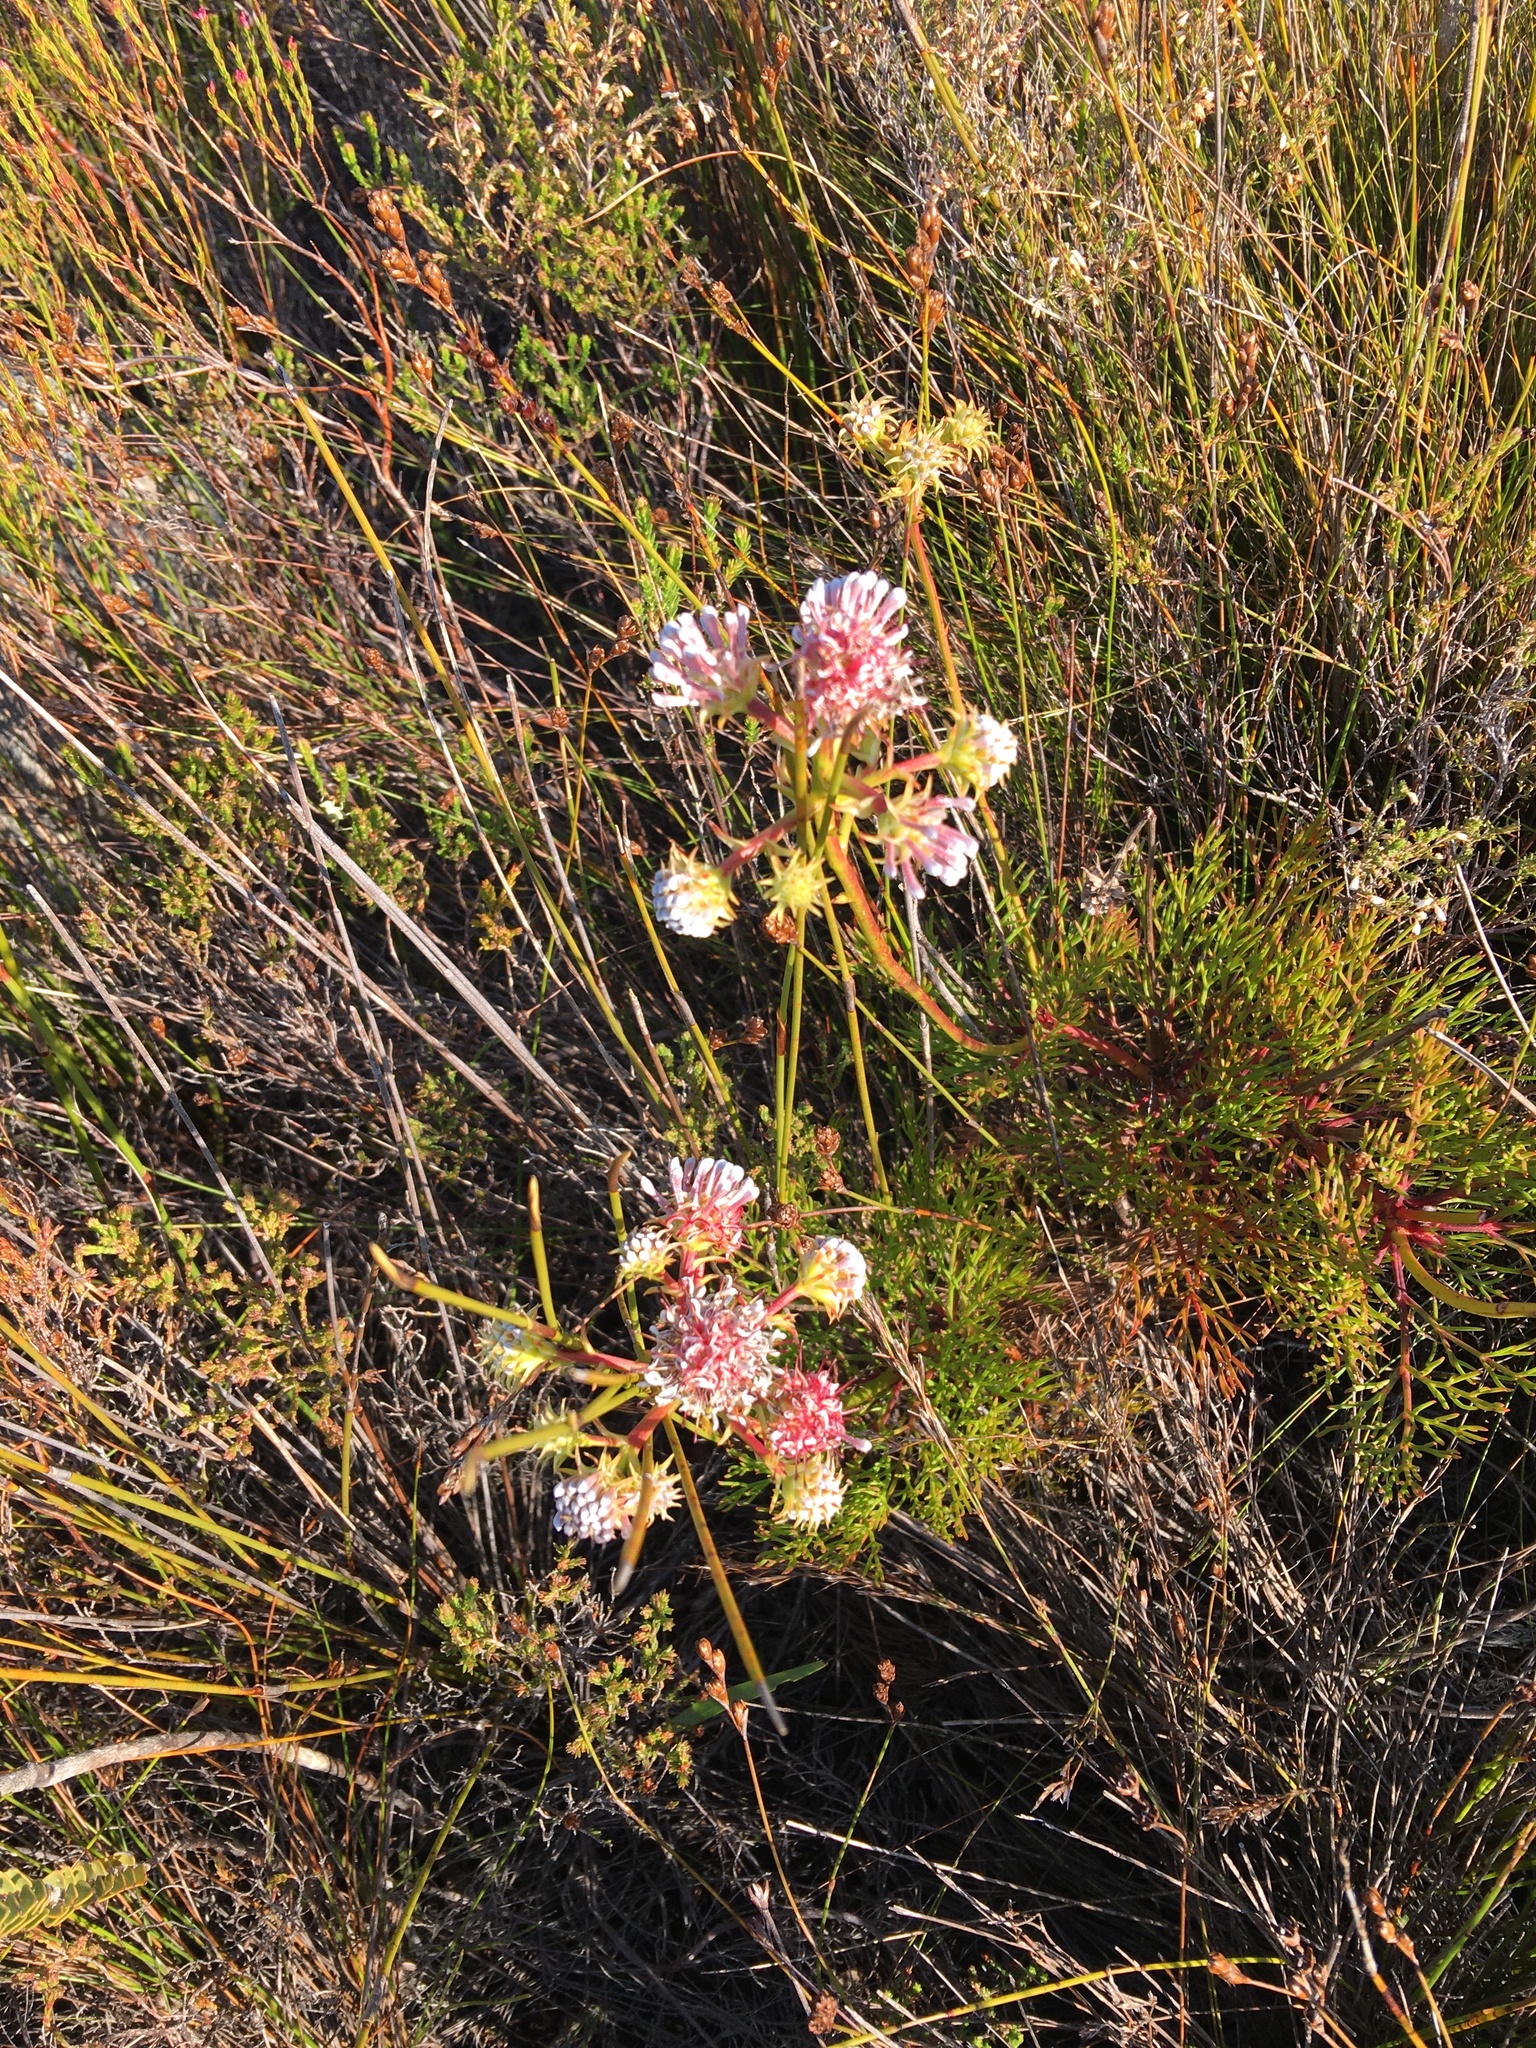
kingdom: Plantae
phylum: Tracheophyta
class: Magnoliopsida
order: Proteales
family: Proteaceae
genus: Serruria
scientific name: Serruria elongata
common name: Long-stalk spiderhead
